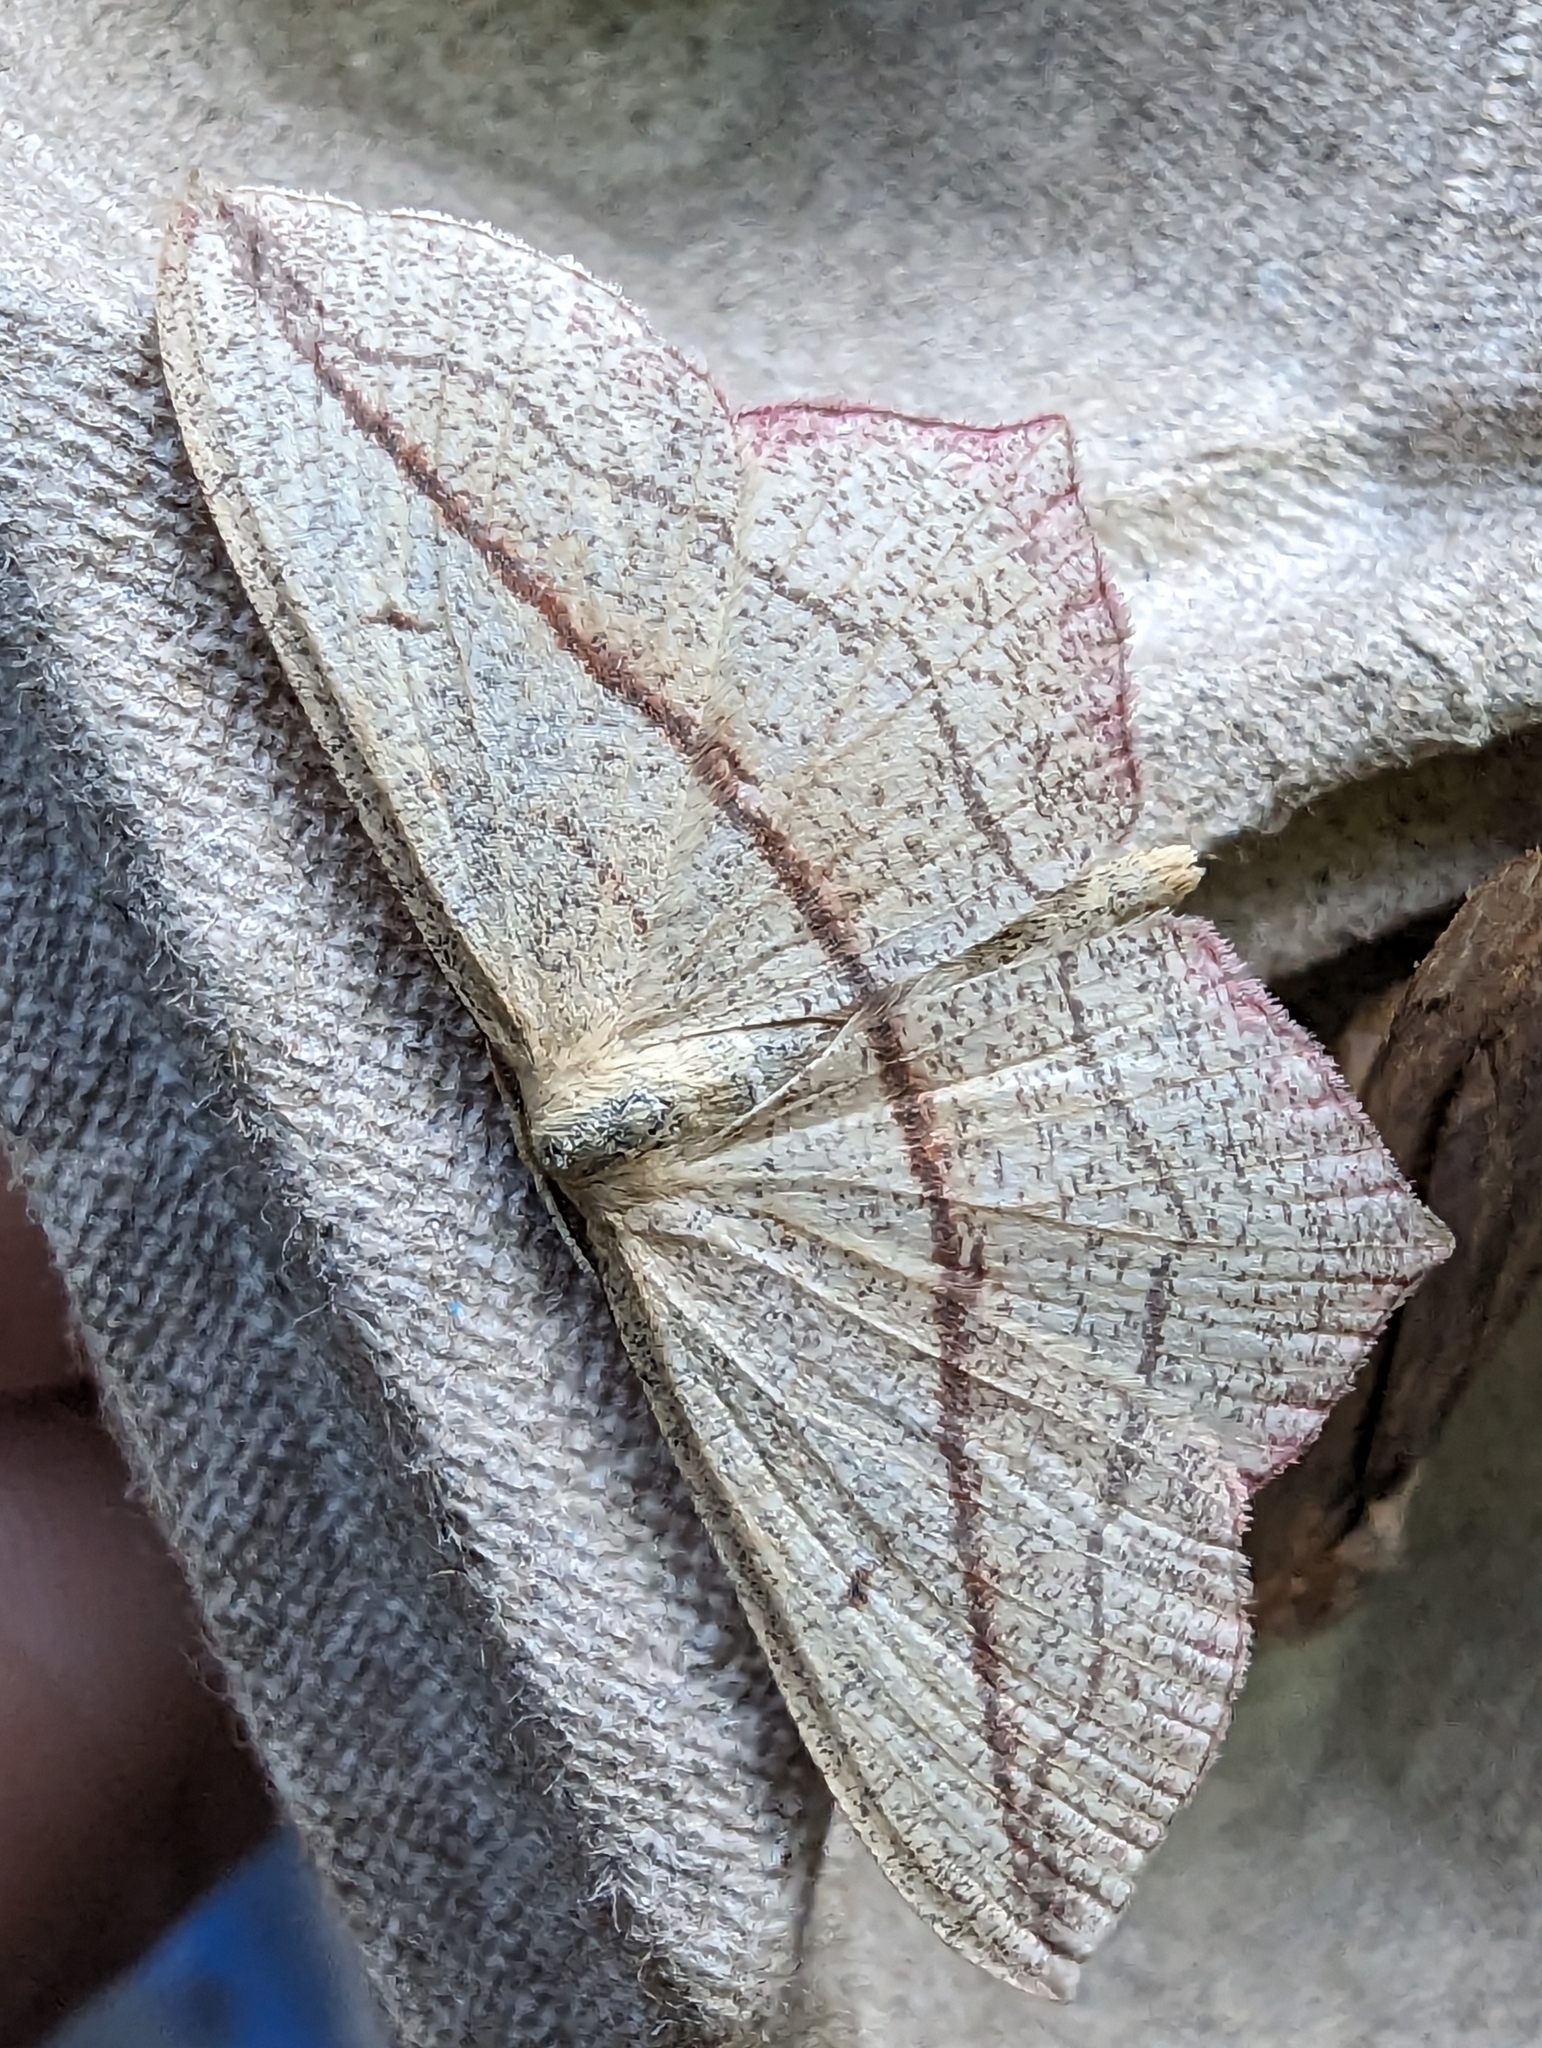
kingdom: Animalia
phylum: Arthropoda
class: Insecta
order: Lepidoptera
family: Geometridae
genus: Timandra
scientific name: Timandra comae
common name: Blood-vein
